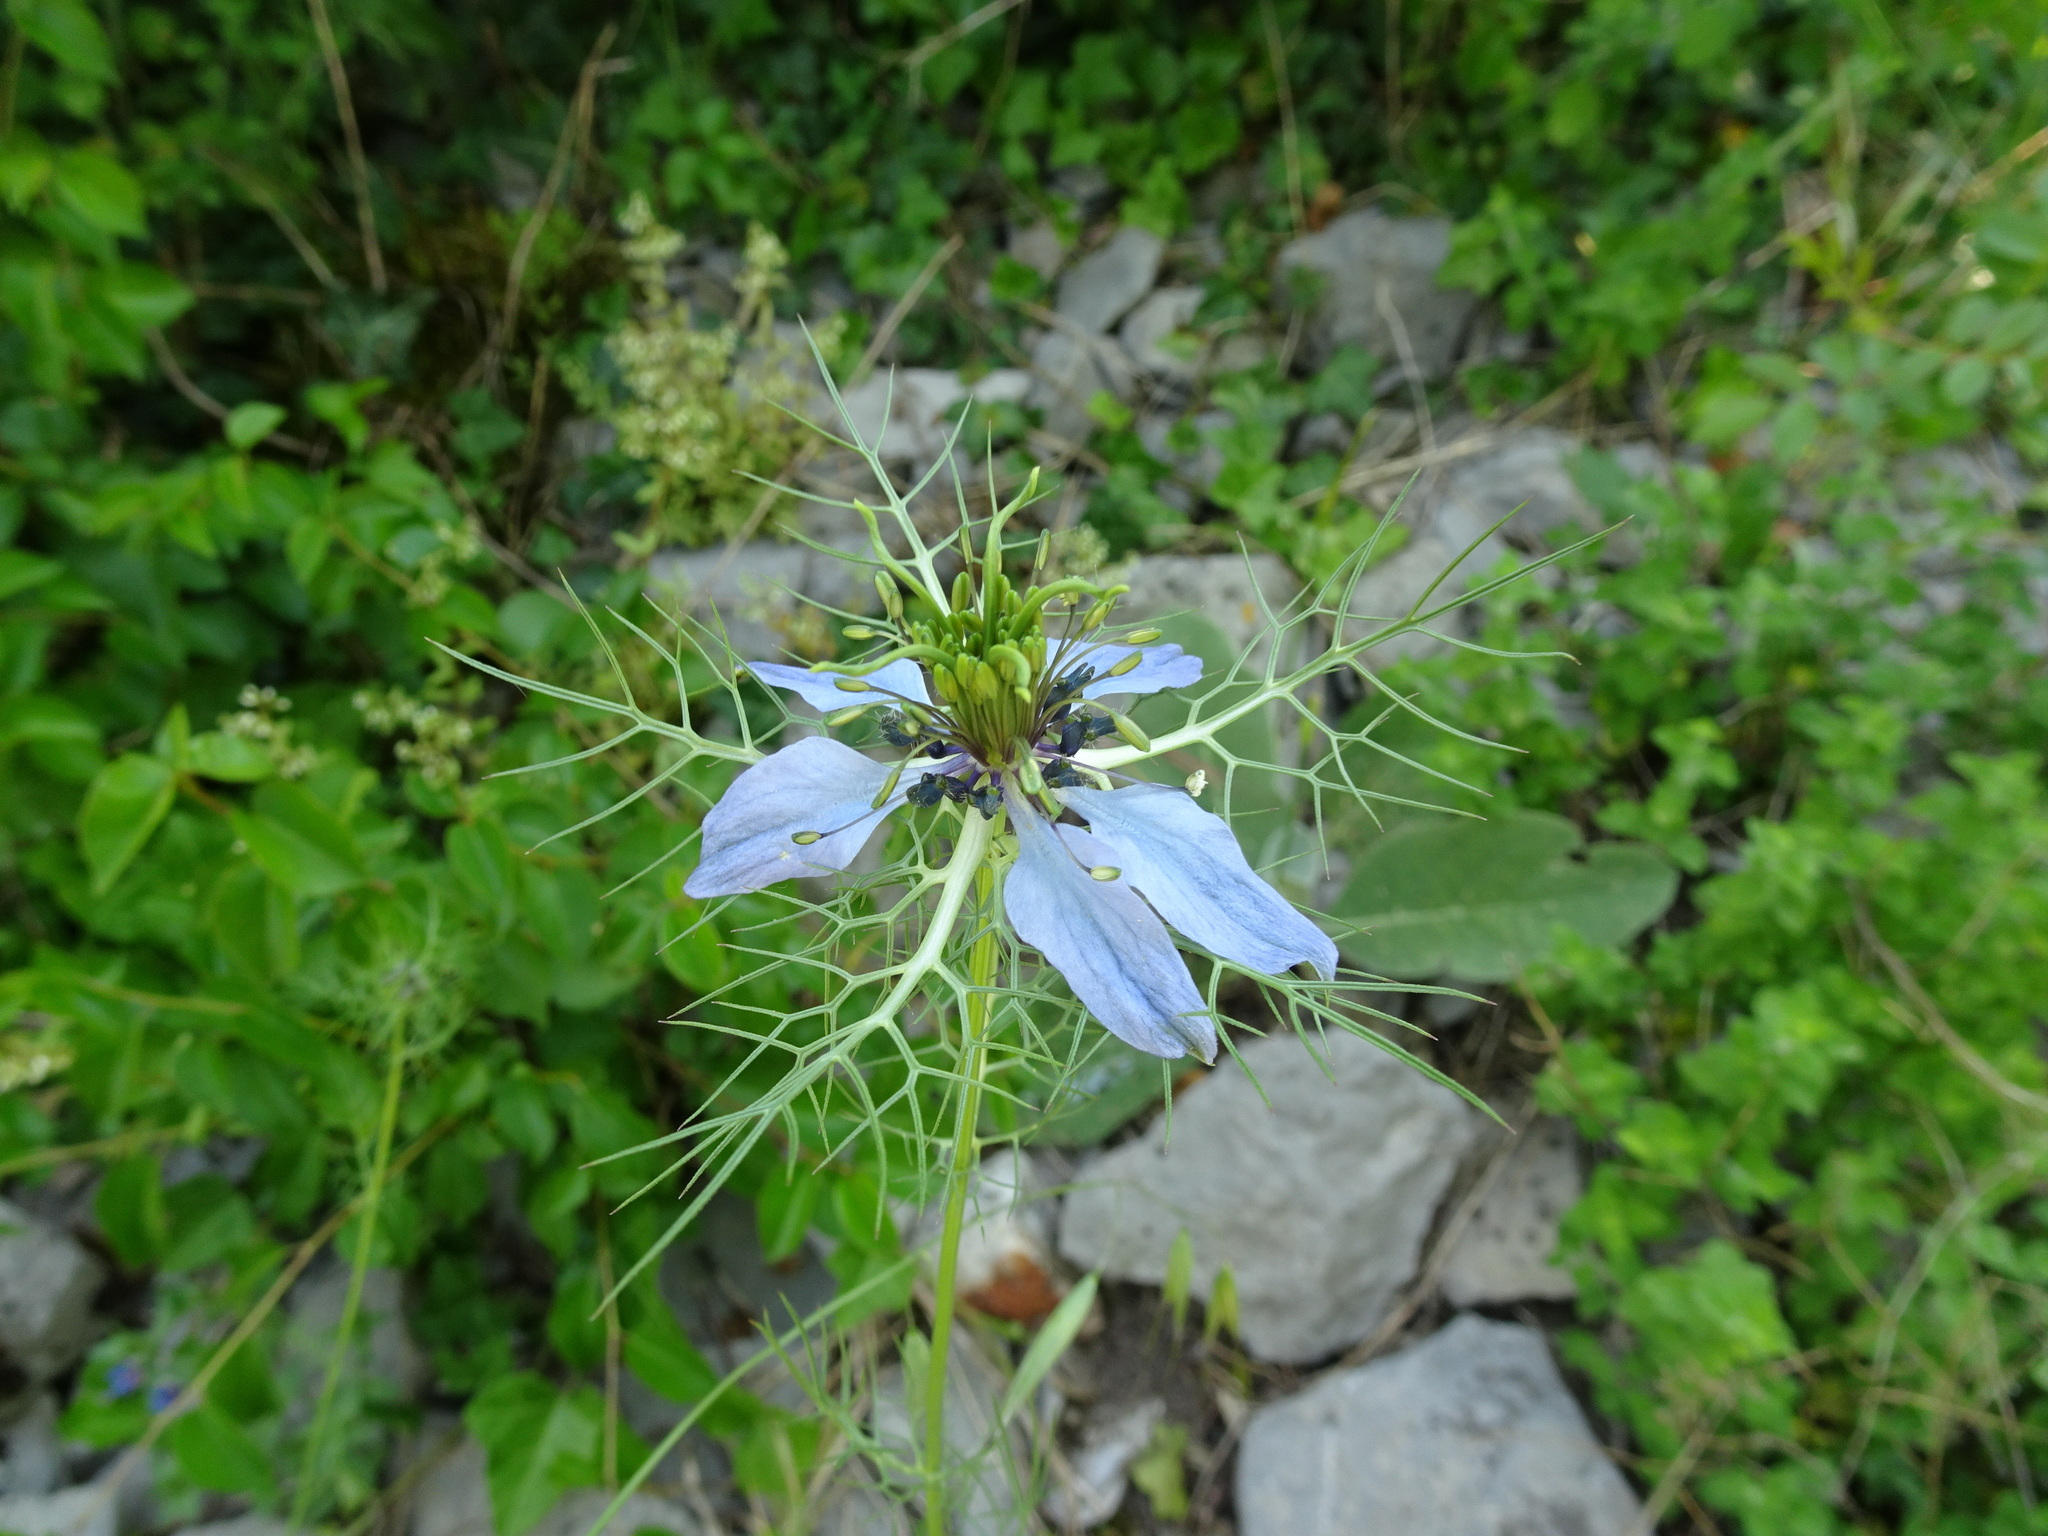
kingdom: Plantae
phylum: Tracheophyta
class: Magnoliopsida
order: Ranunculales
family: Ranunculaceae
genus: Nigella
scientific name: Nigella damascena
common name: Love-in-a-mist
